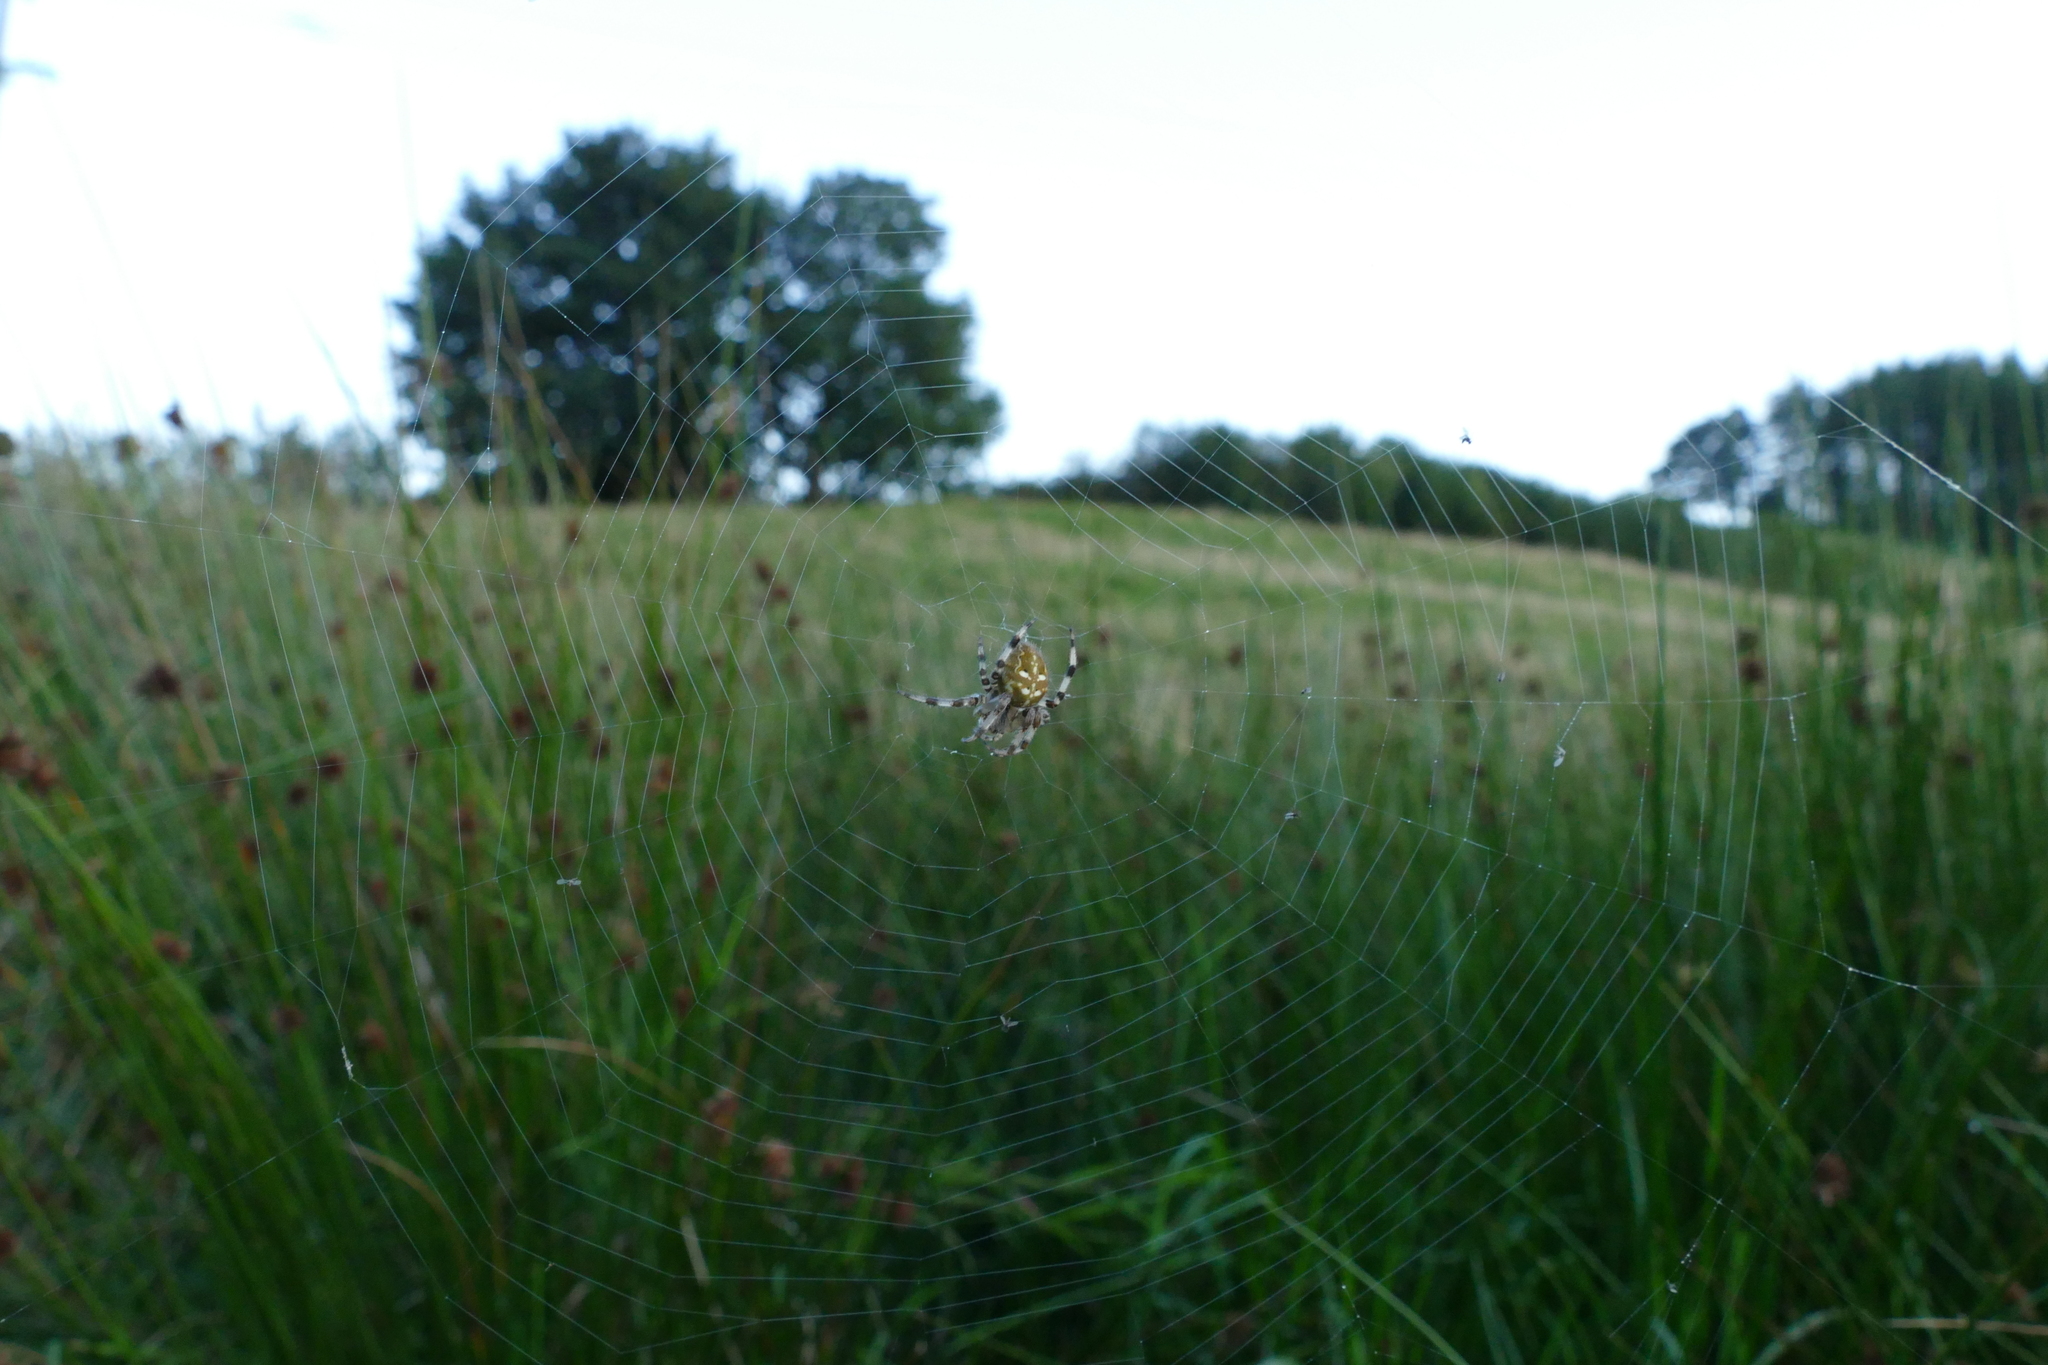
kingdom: Animalia
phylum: Arthropoda
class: Arachnida
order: Araneae
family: Araneidae
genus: Araneus
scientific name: Araneus quadratus
